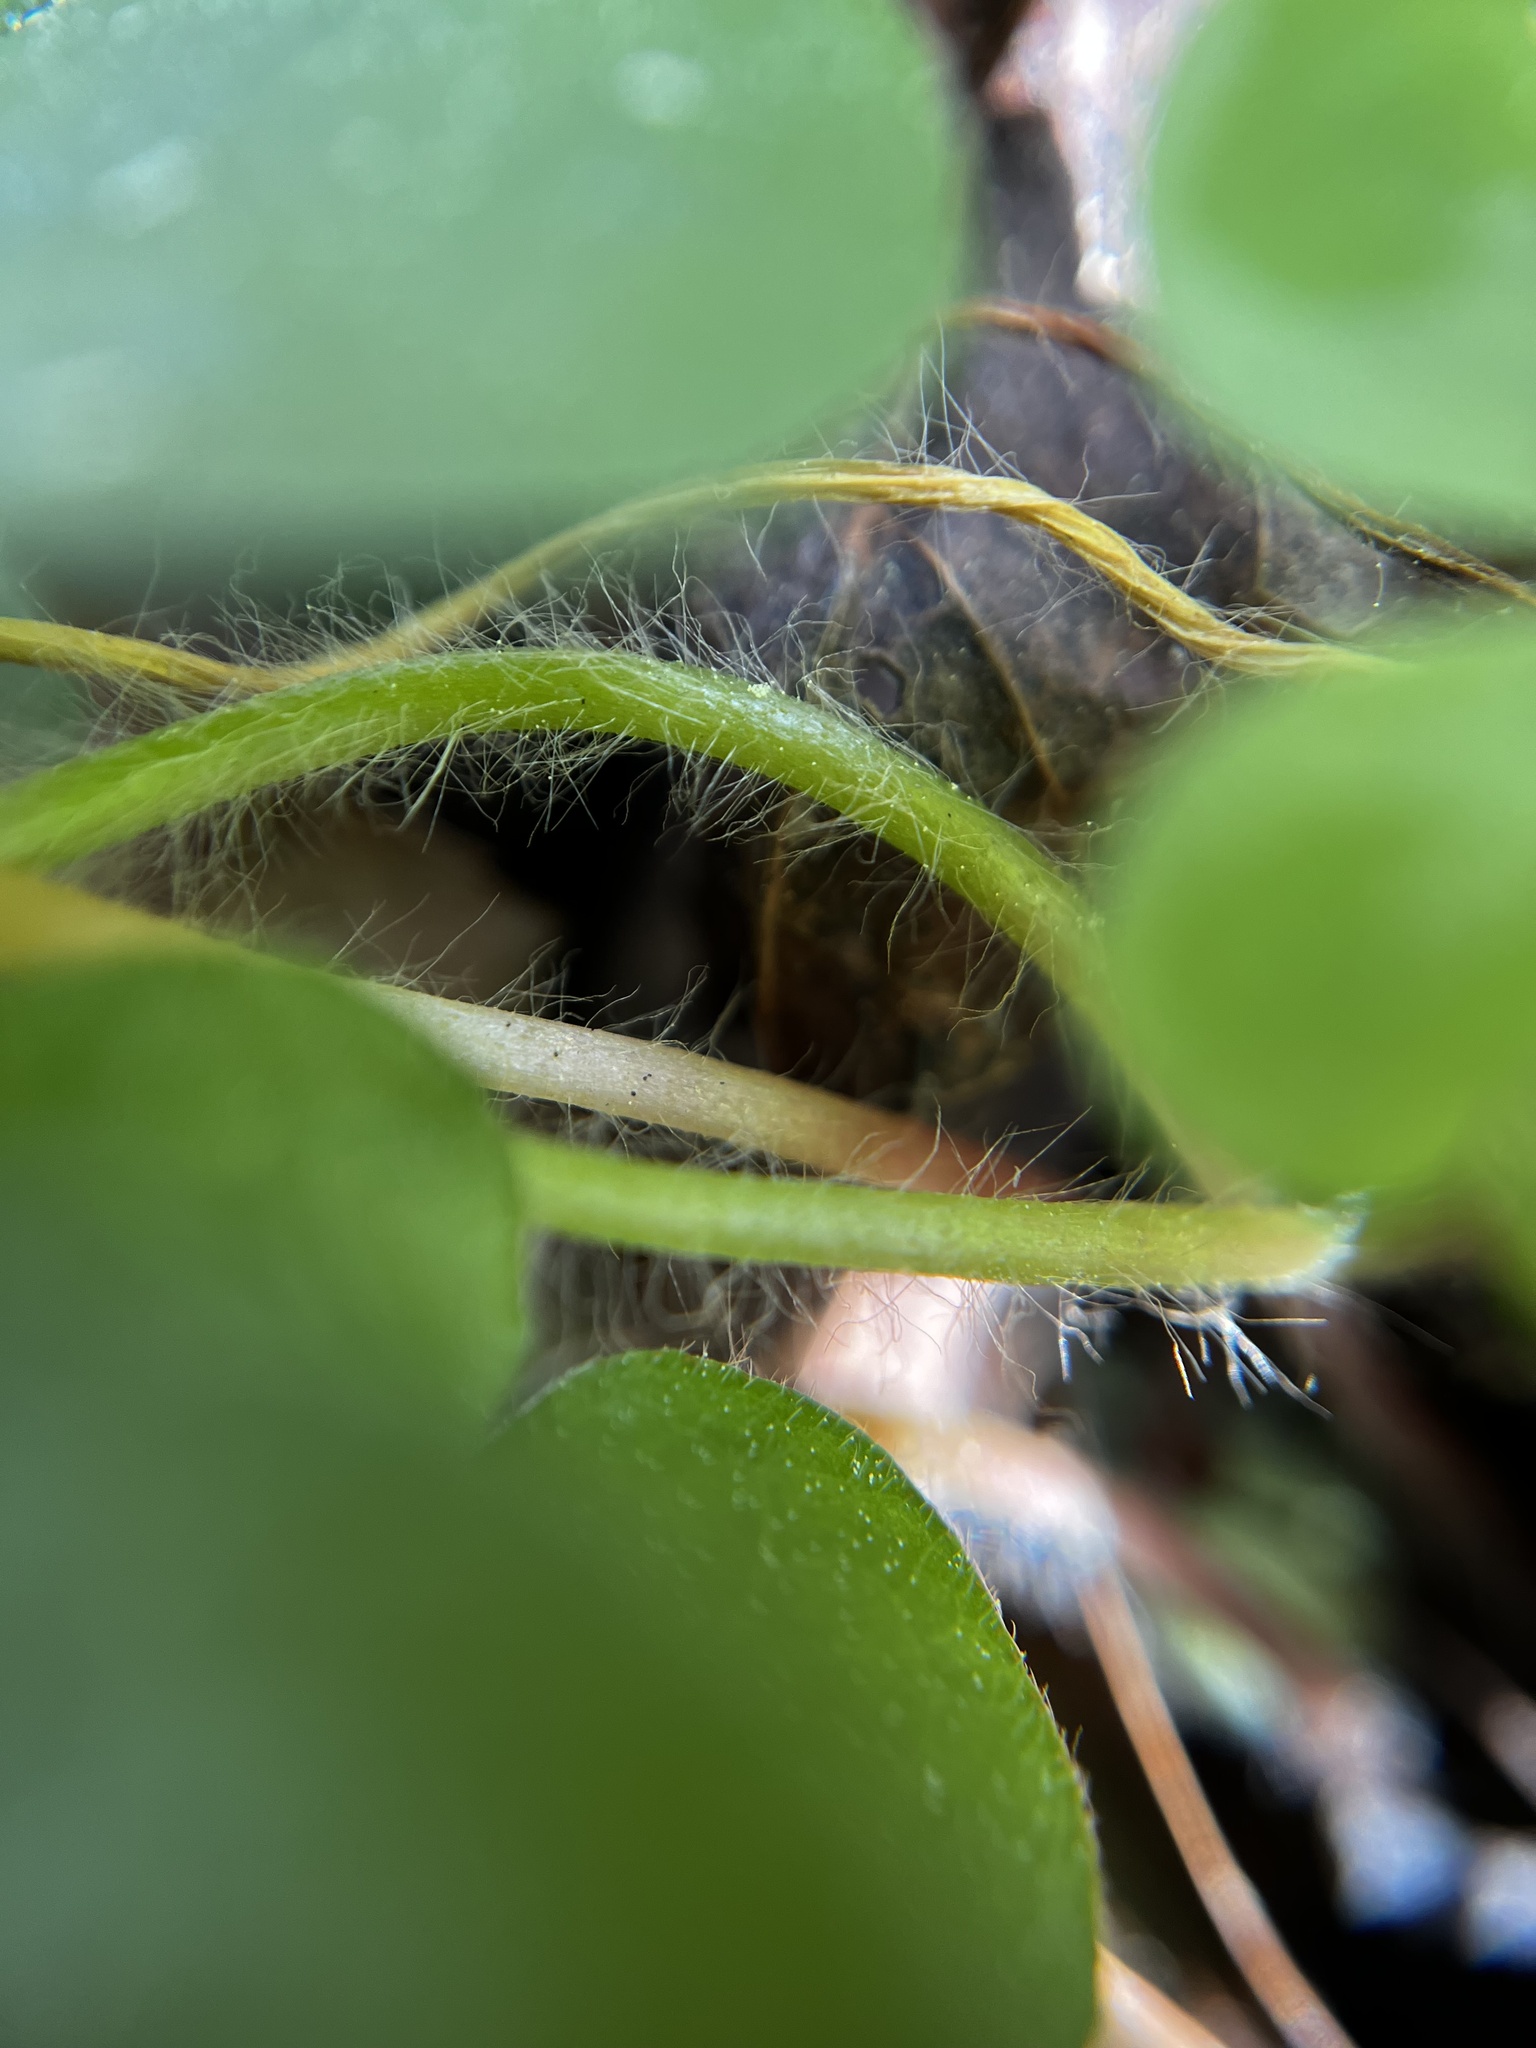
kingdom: Plantae
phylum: Tracheophyta
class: Magnoliopsida
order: Oxalidales
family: Oxalidaceae
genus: Oxalis
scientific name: Oxalis debilis
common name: Large-flowered pink-sorrel
